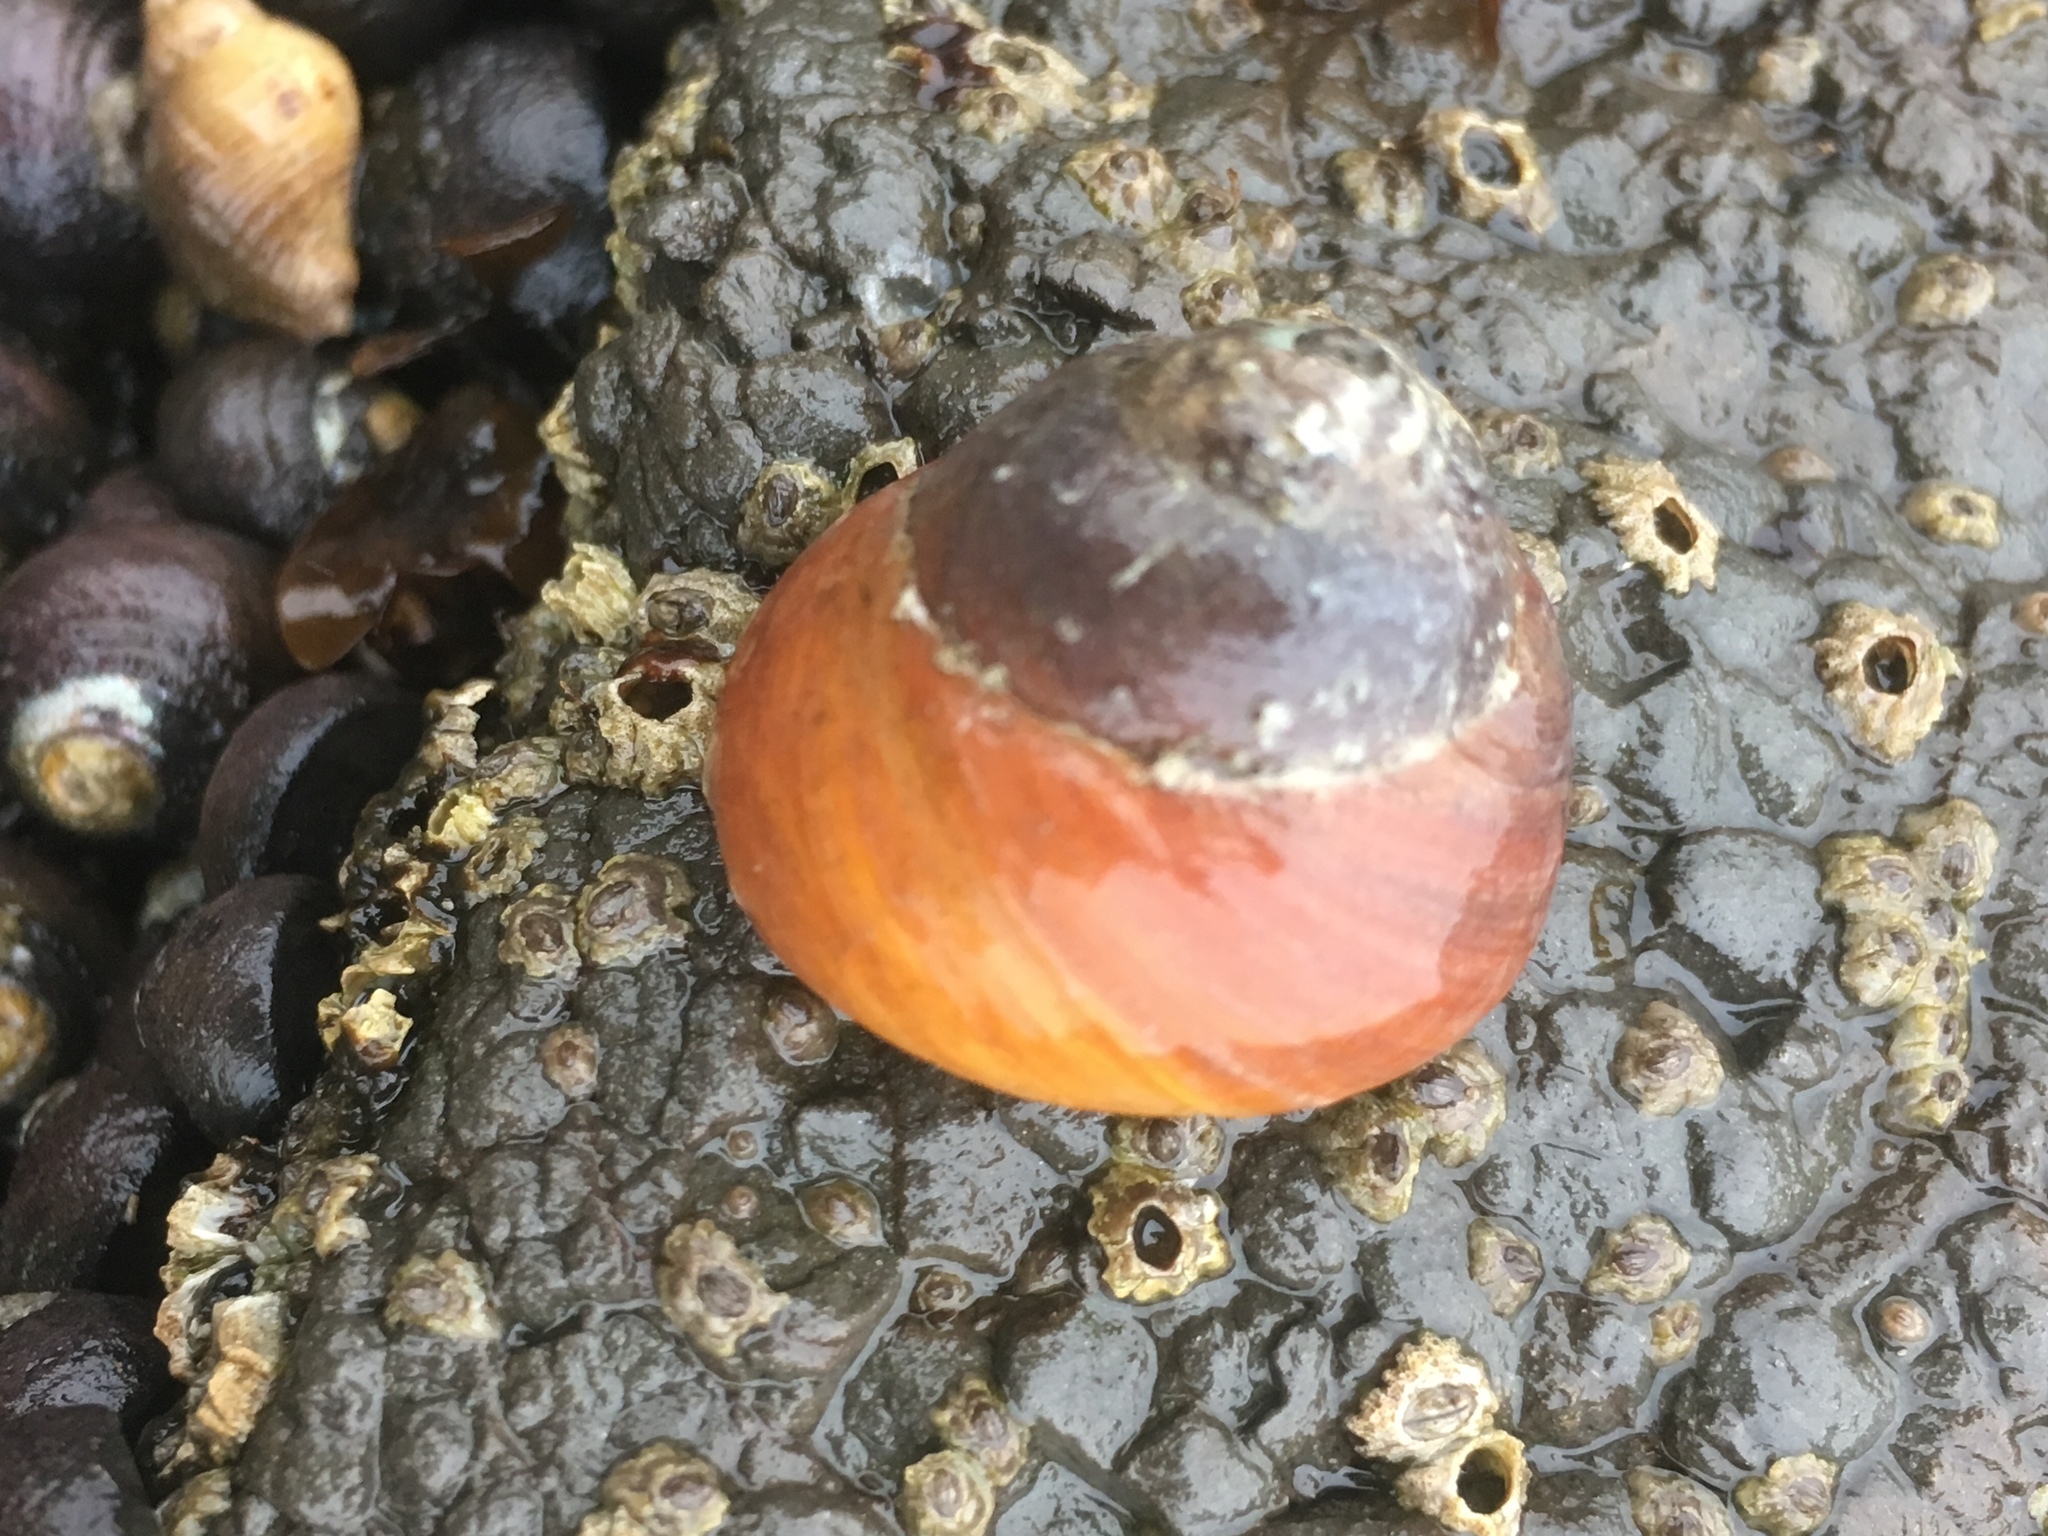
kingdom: Animalia
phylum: Mollusca
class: Gastropoda
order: Trochida
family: Tegulidae
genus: Tegula
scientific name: Tegula brunnea
